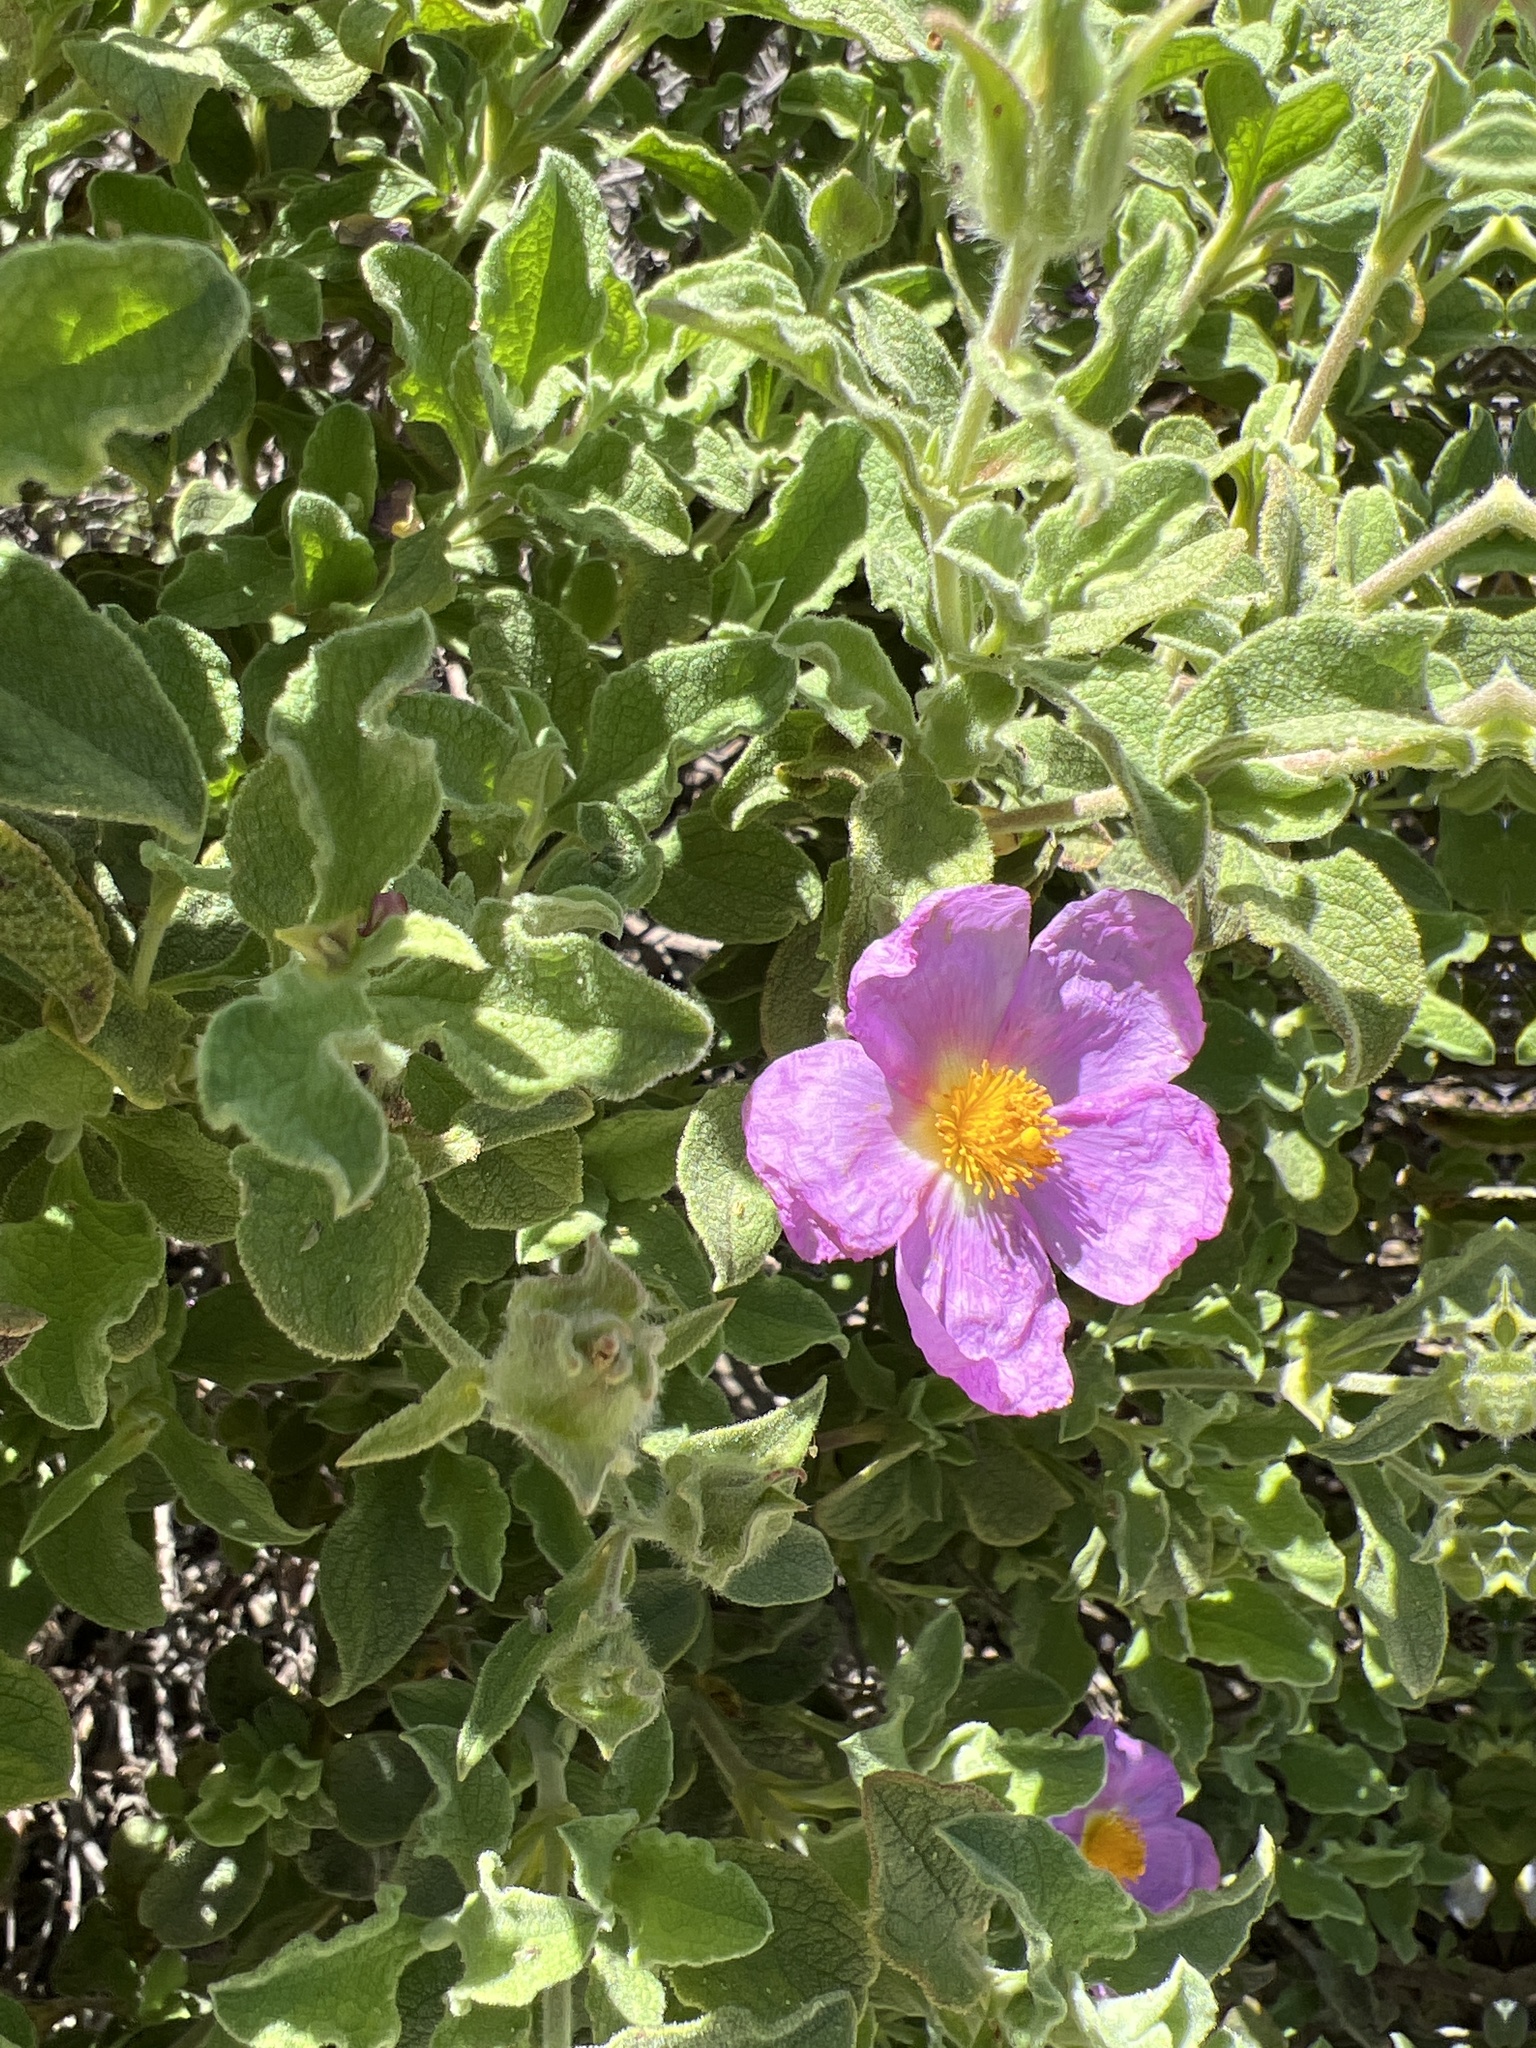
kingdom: Plantae
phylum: Tracheophyta
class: Magnoliopsida
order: Malvales
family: Cistaceae
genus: Cistus
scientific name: Cistus creticus
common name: Cretan rockrose
